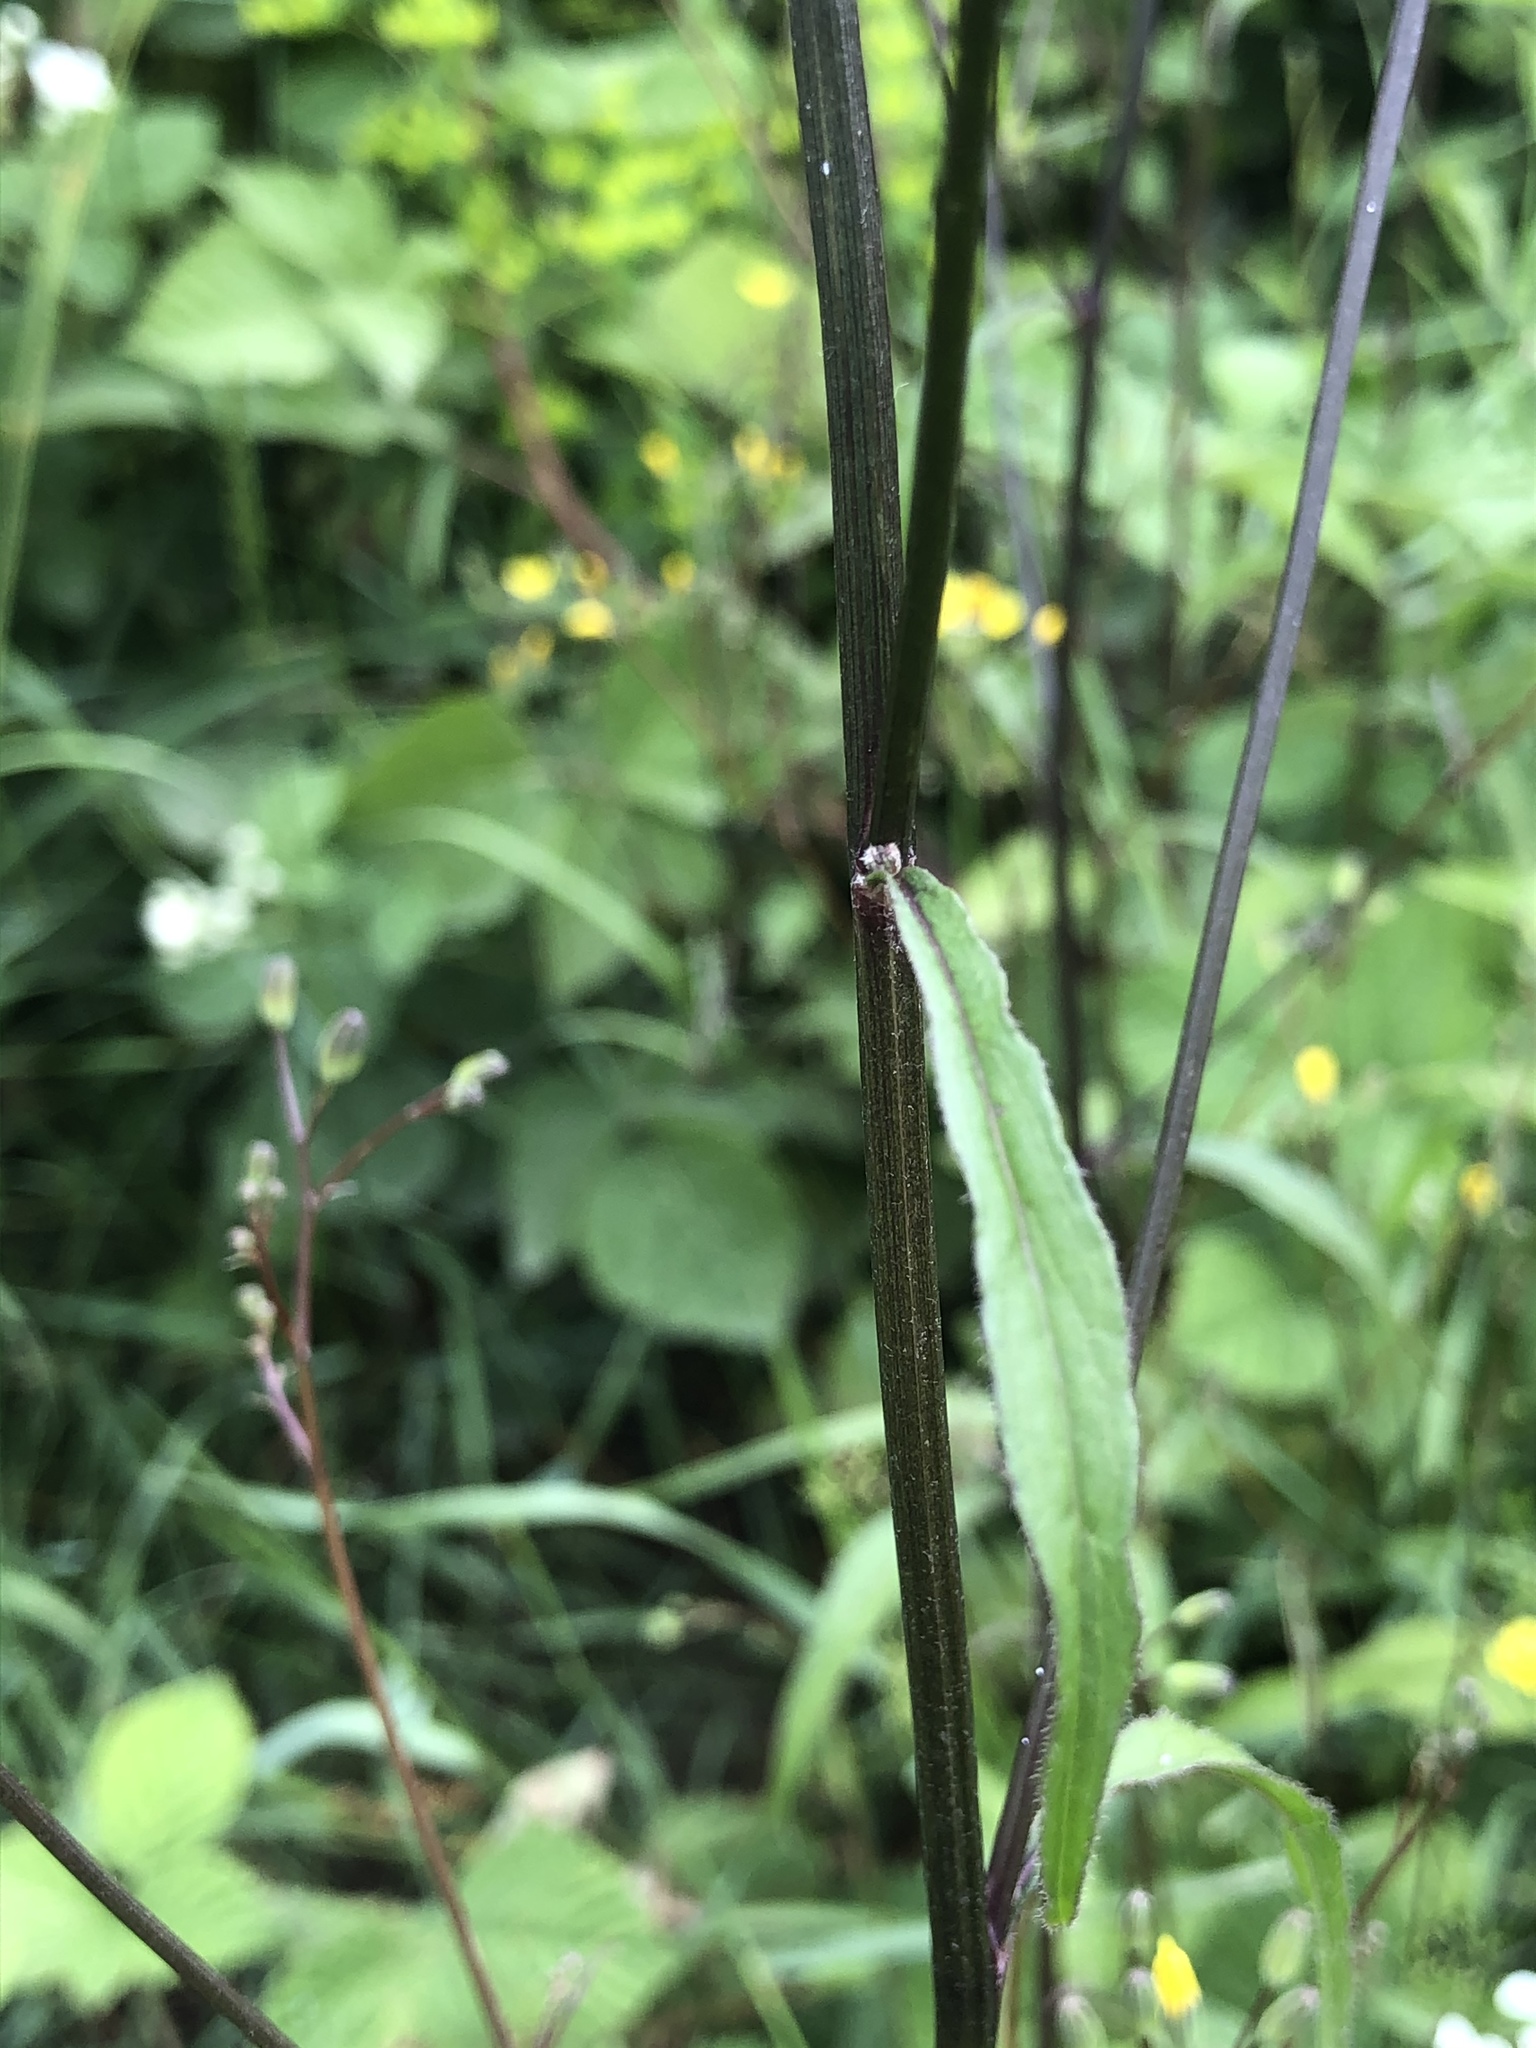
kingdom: Plantae
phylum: Tracheophyta
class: Magnoliopsida
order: Asterales
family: Asteraceae
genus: Lapsana
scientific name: Lapsana communis
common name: Nipplewort
